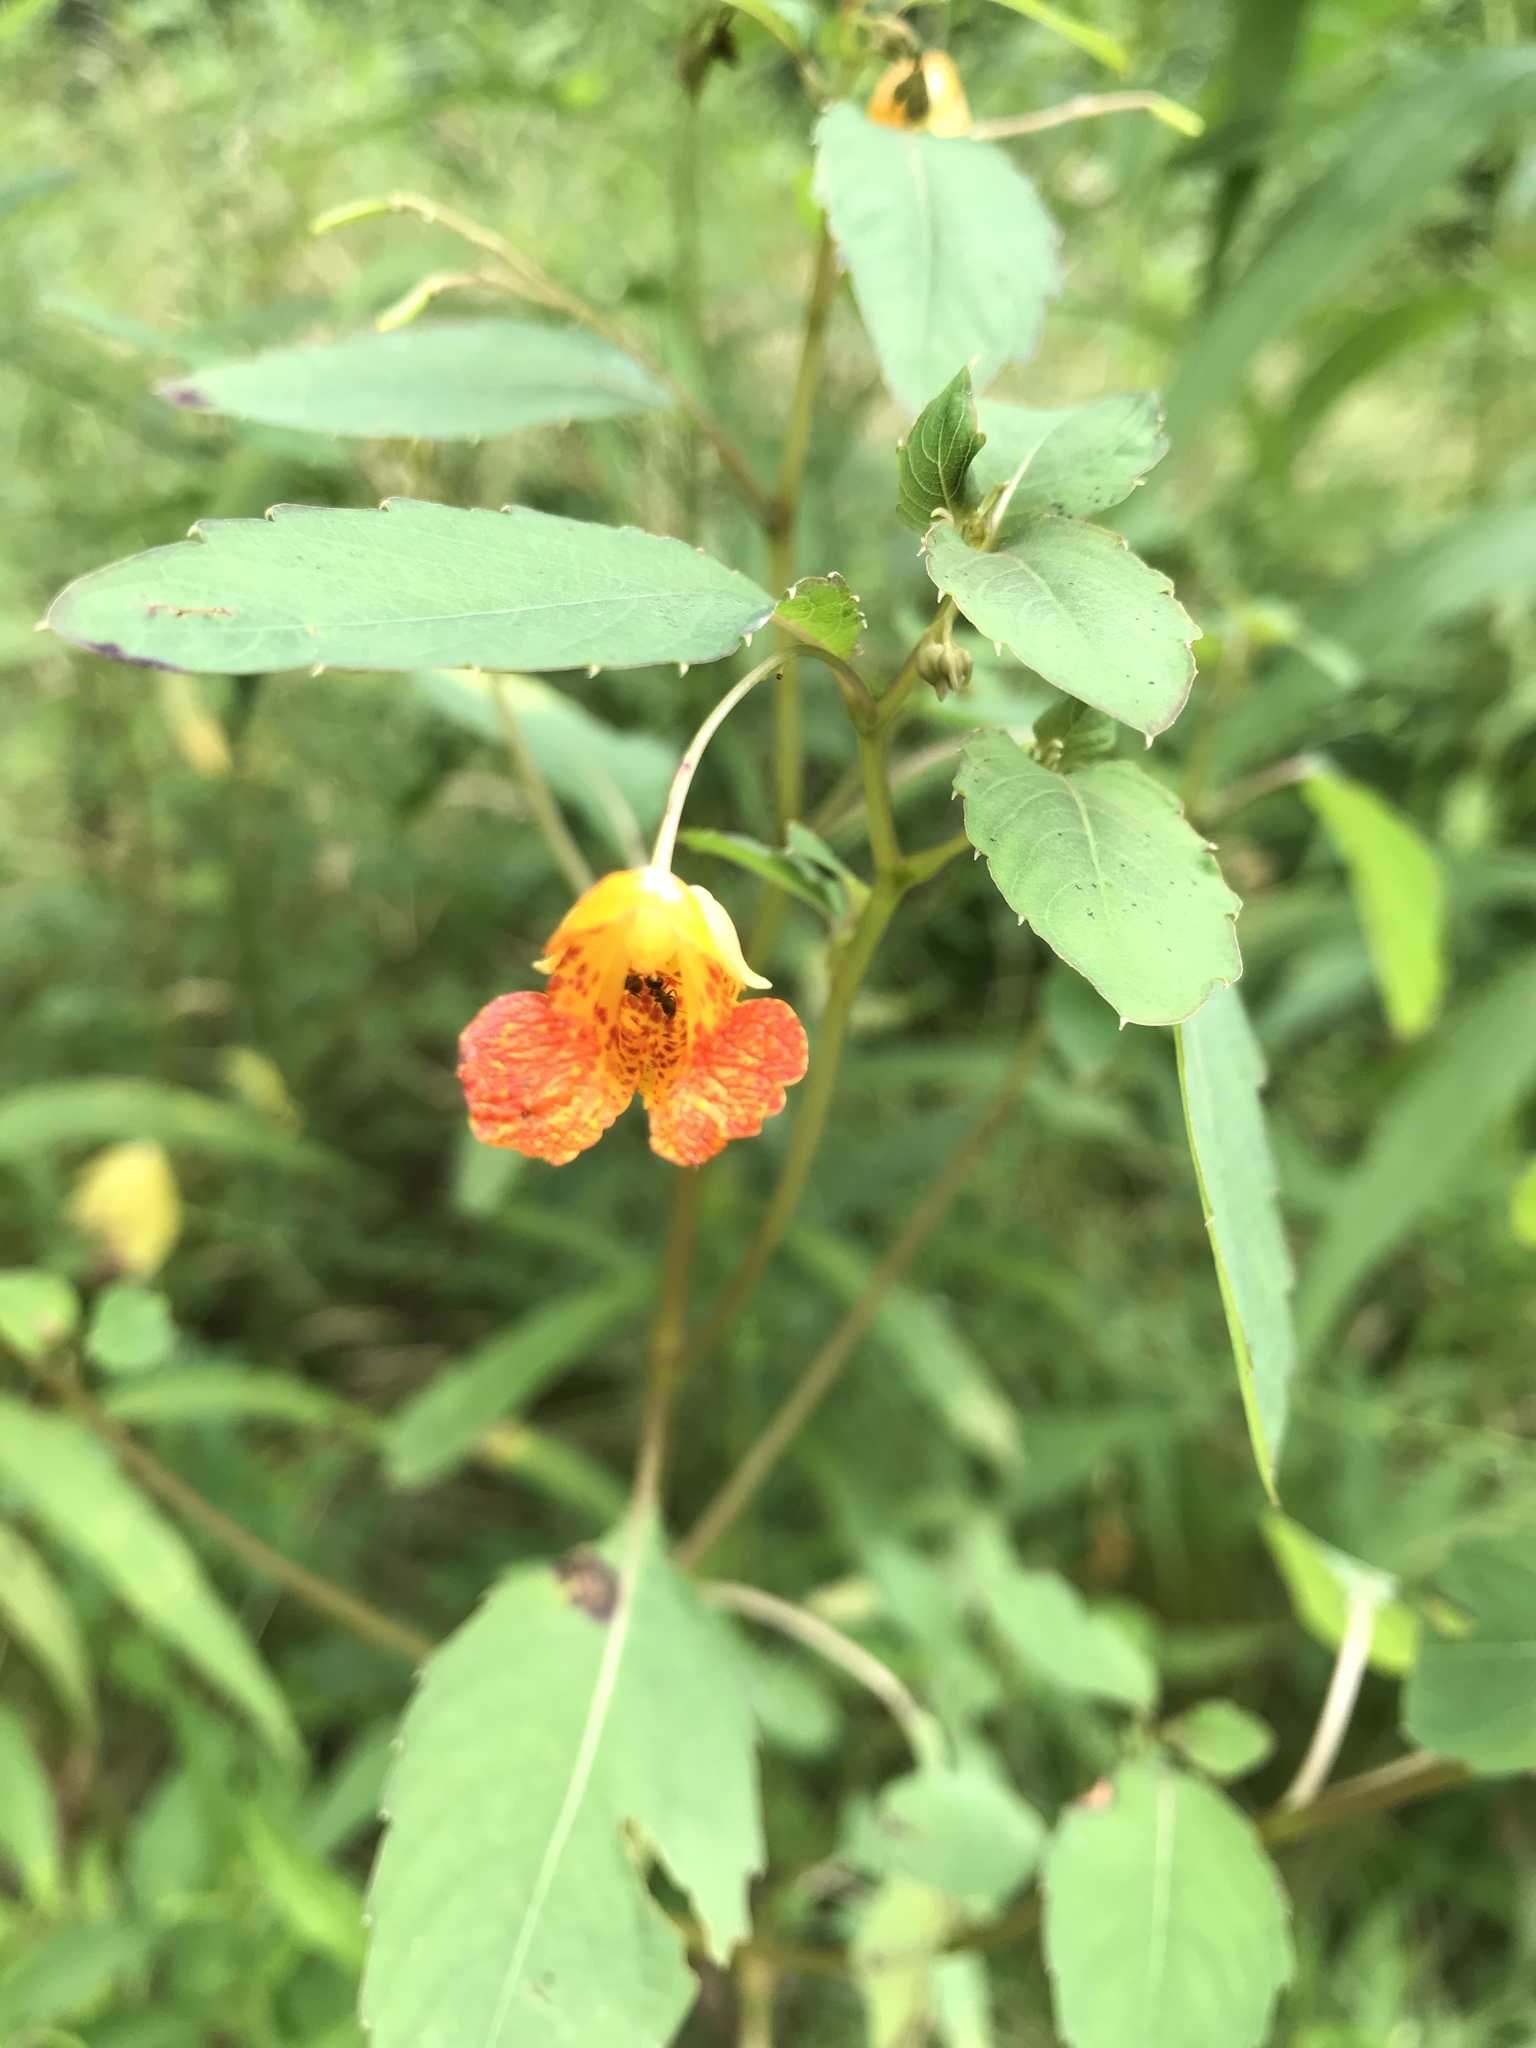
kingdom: Plantae
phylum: Tracheophyta
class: Magnoliopsida
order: Ericales
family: Balsaminaceae
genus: Impatiens
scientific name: Impatiens capensis
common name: Orange balsam
